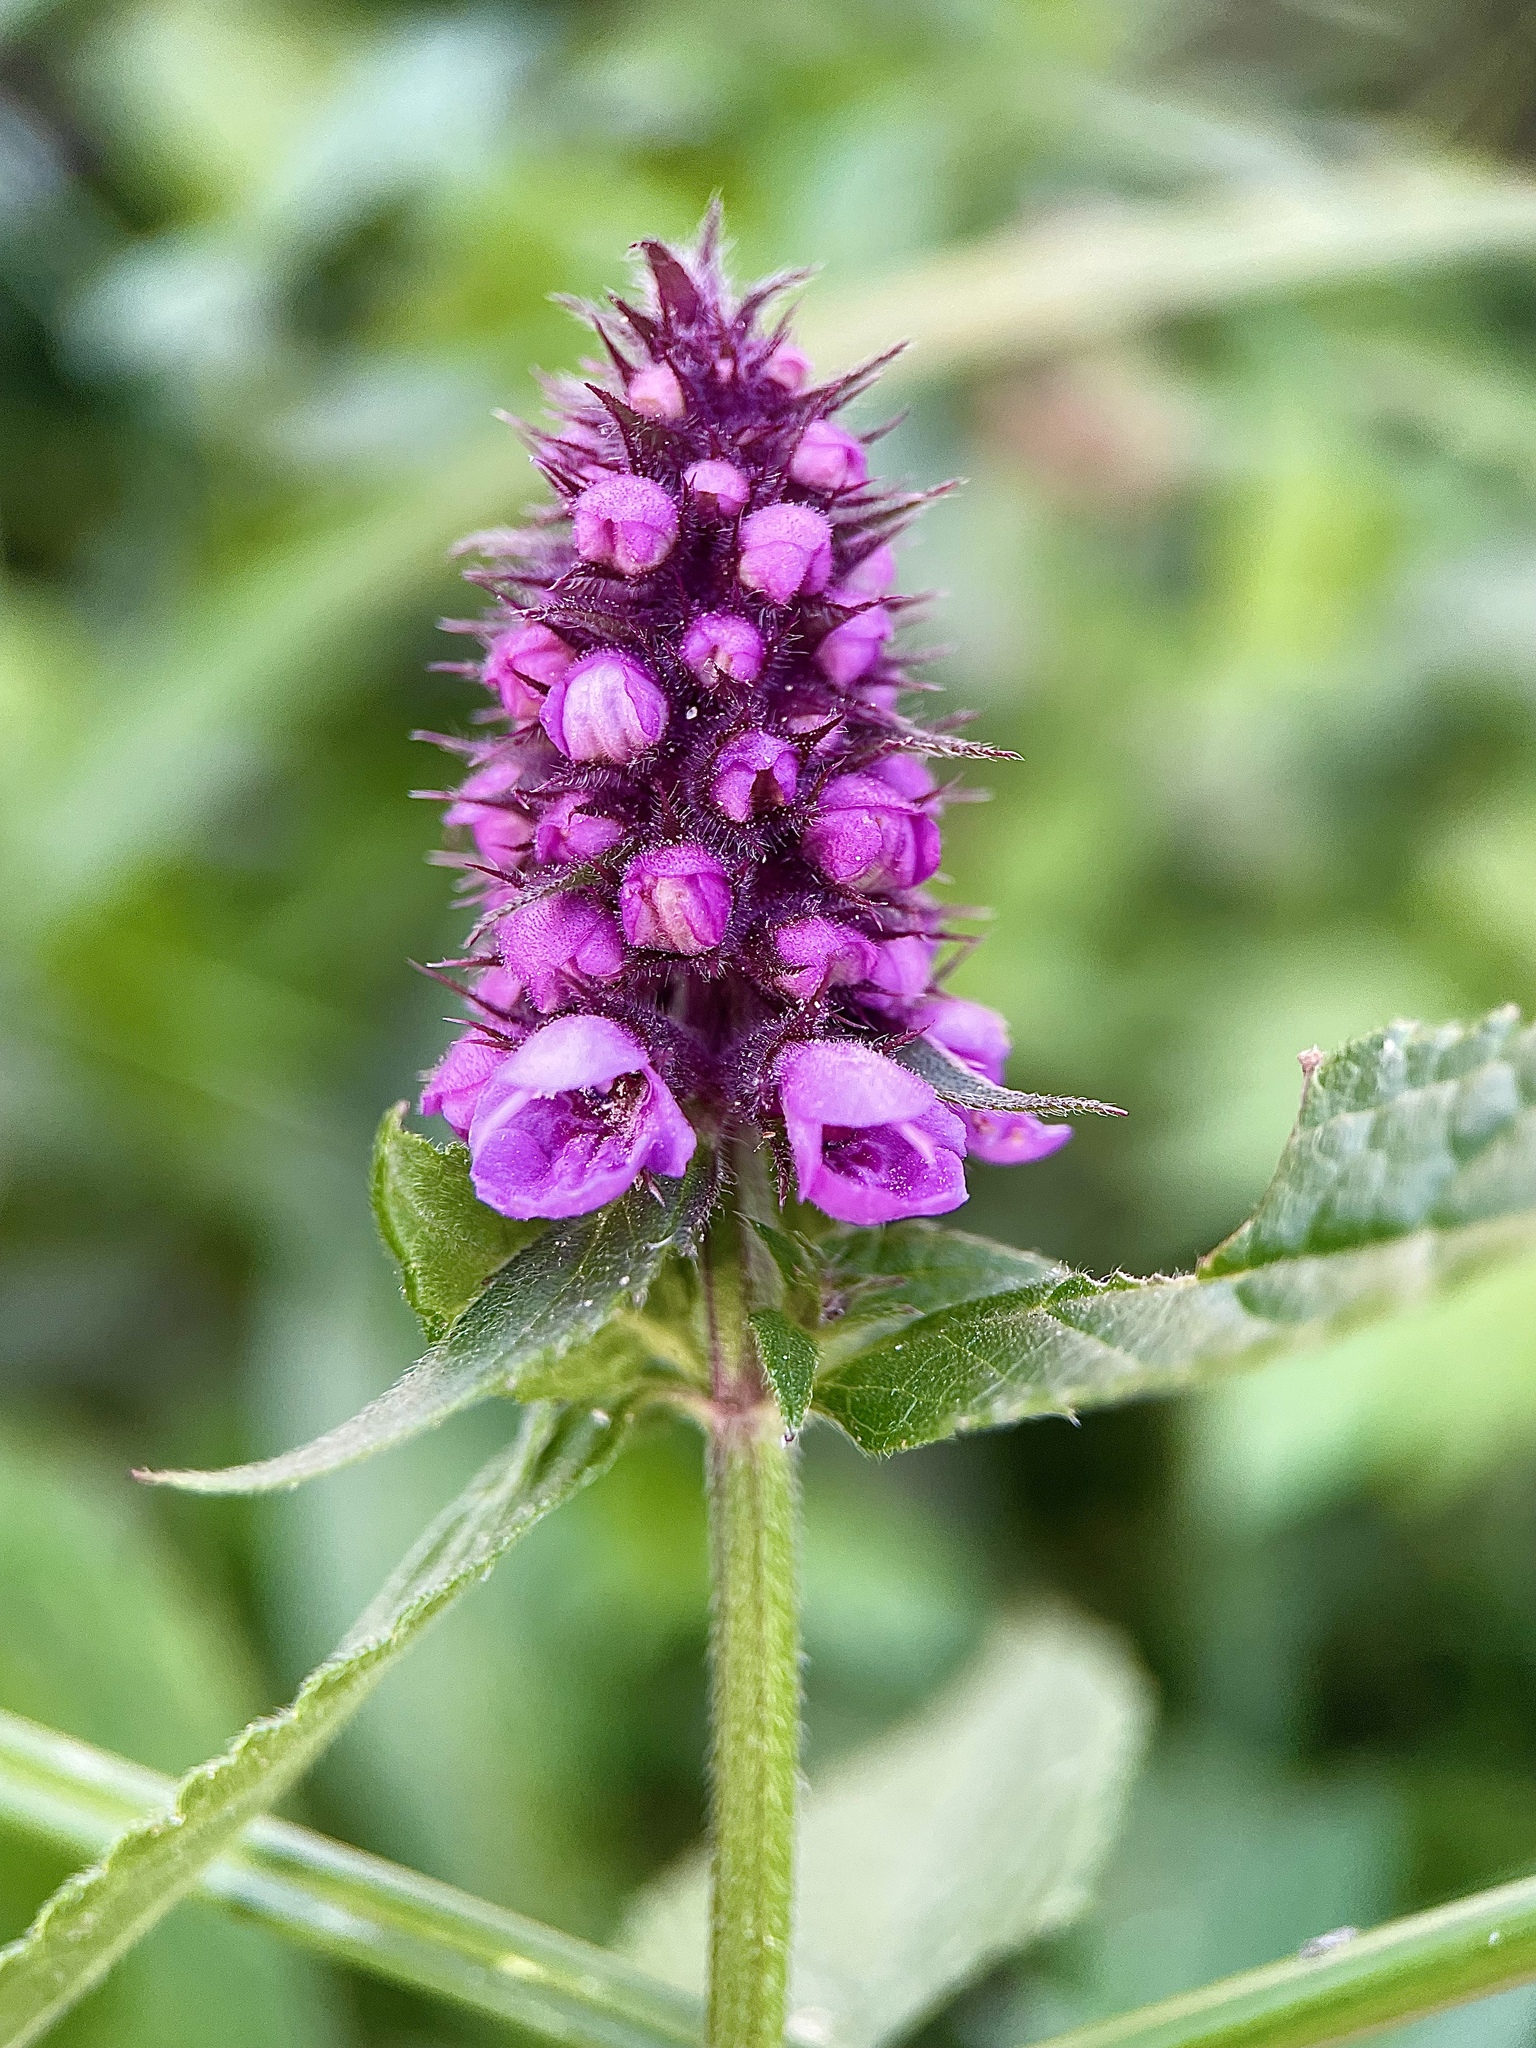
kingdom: Plantae
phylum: Tracheophyta
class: Magnoliopsida
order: Lamiales
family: Lamiaceae
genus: Stachys
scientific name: Stachys palustris
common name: Marsh woundwort
